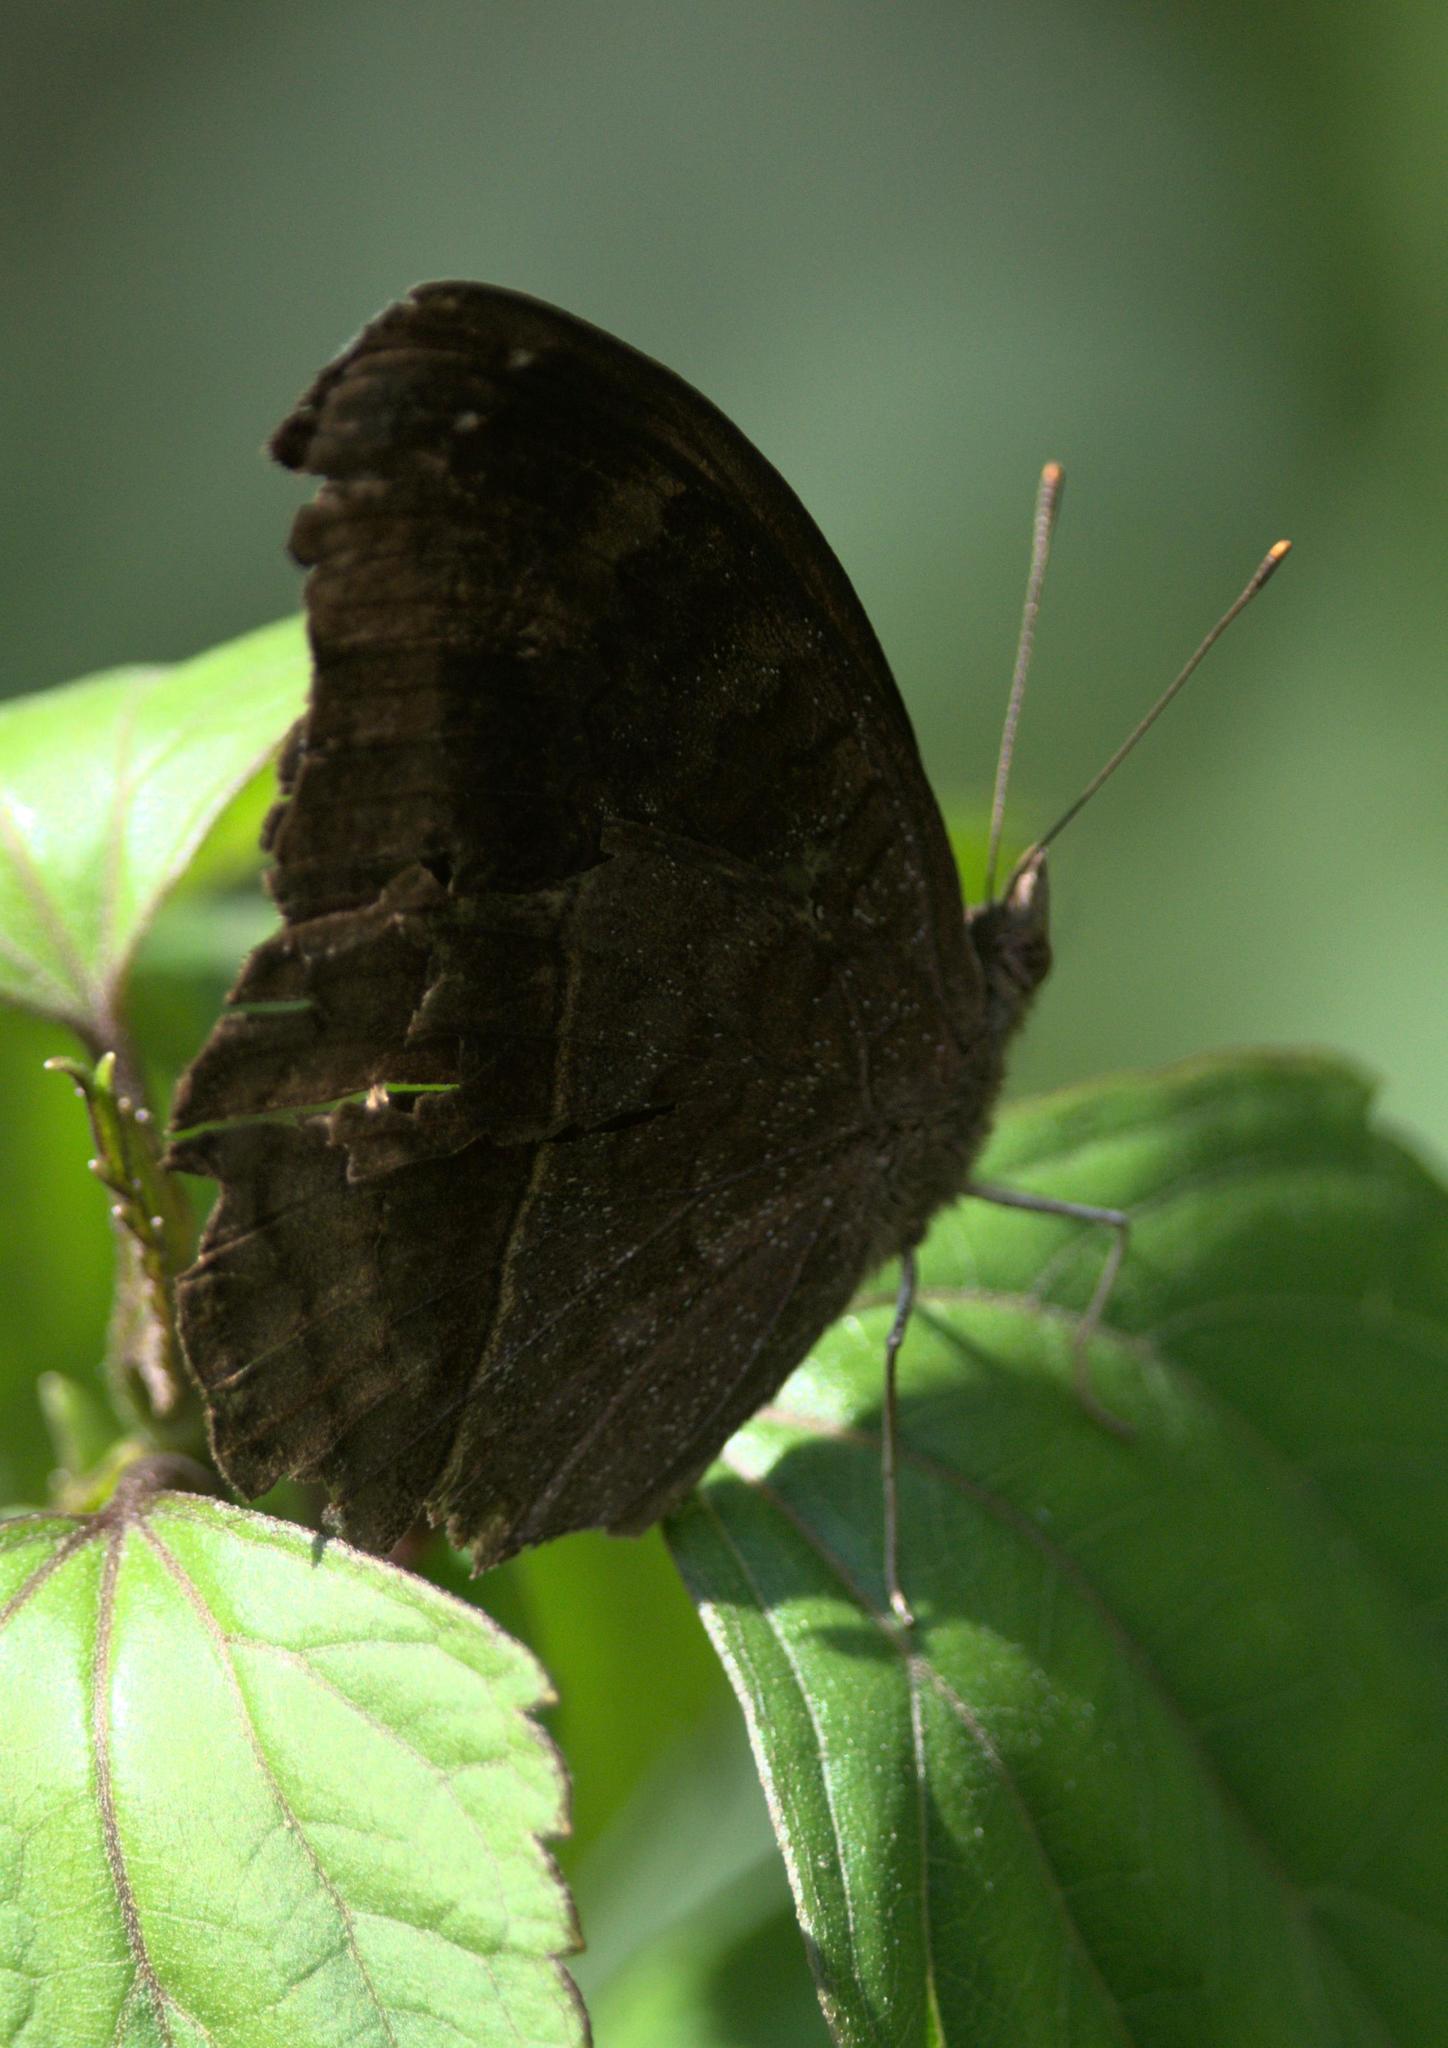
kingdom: Animalia
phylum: Arthropoda
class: Insecta
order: Lepidoptera
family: Nymphalidae
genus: Junonia
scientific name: Junonia iphita
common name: Chocolate pansy
